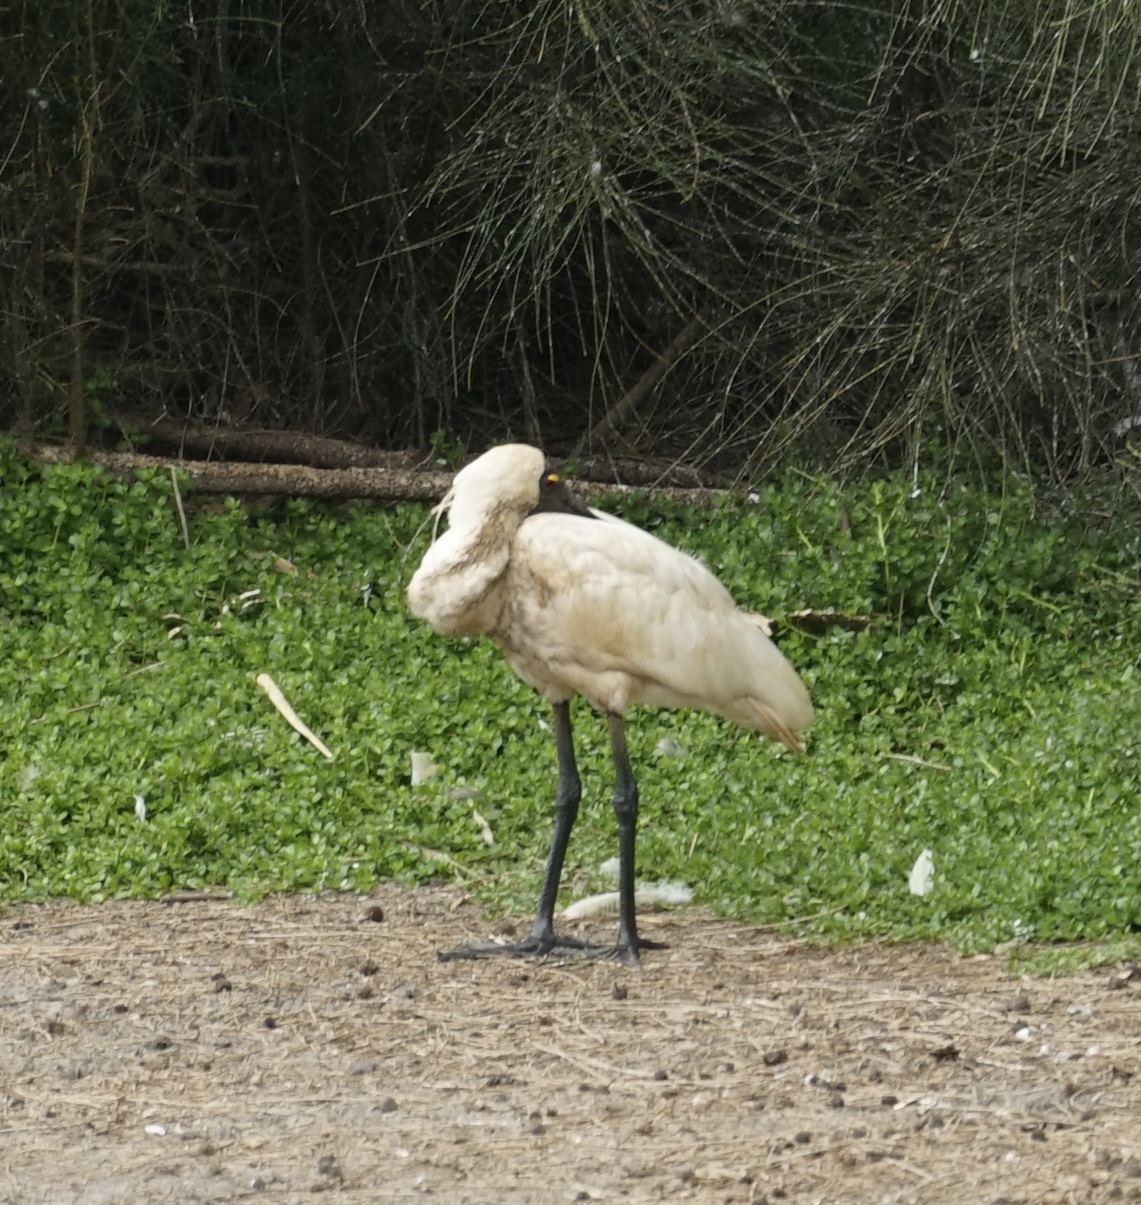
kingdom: Animalia
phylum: Chordata
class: Aves
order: Pelecaniformes
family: Threskiornithidae
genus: Platalea
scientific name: Platalea regia
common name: Royal spoonbill
